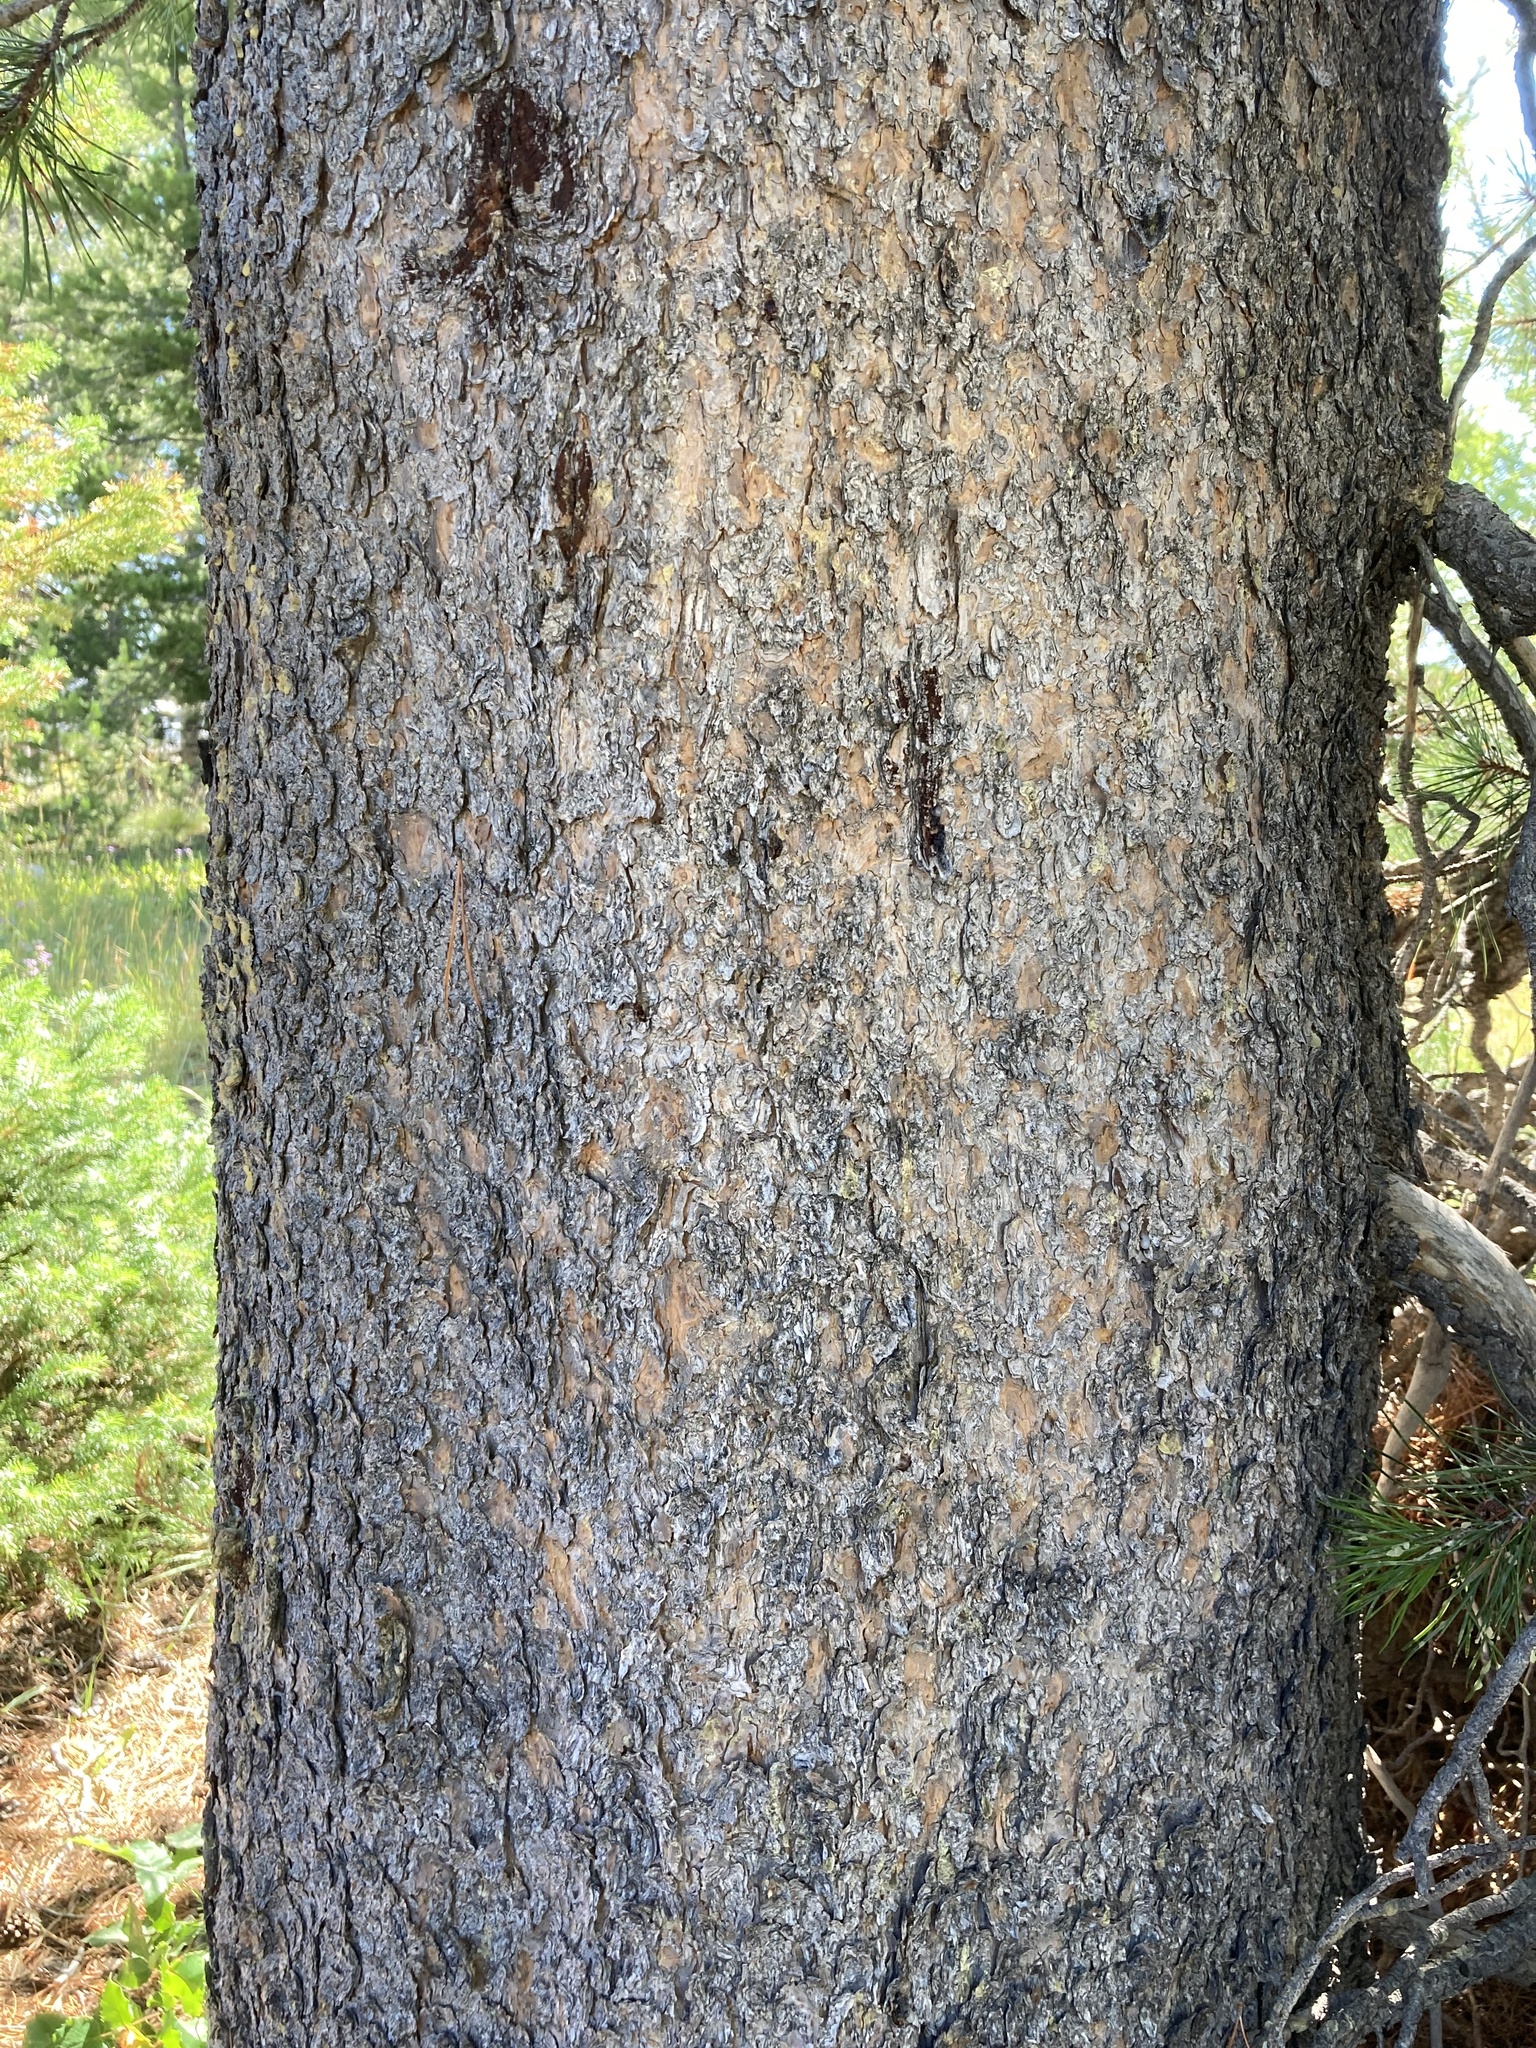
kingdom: Plantae
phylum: Tracheophyta
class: Pinopsida
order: Pinales
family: Pinaceae
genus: Pinus
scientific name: Pinus contorta
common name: Lodgepole pine
